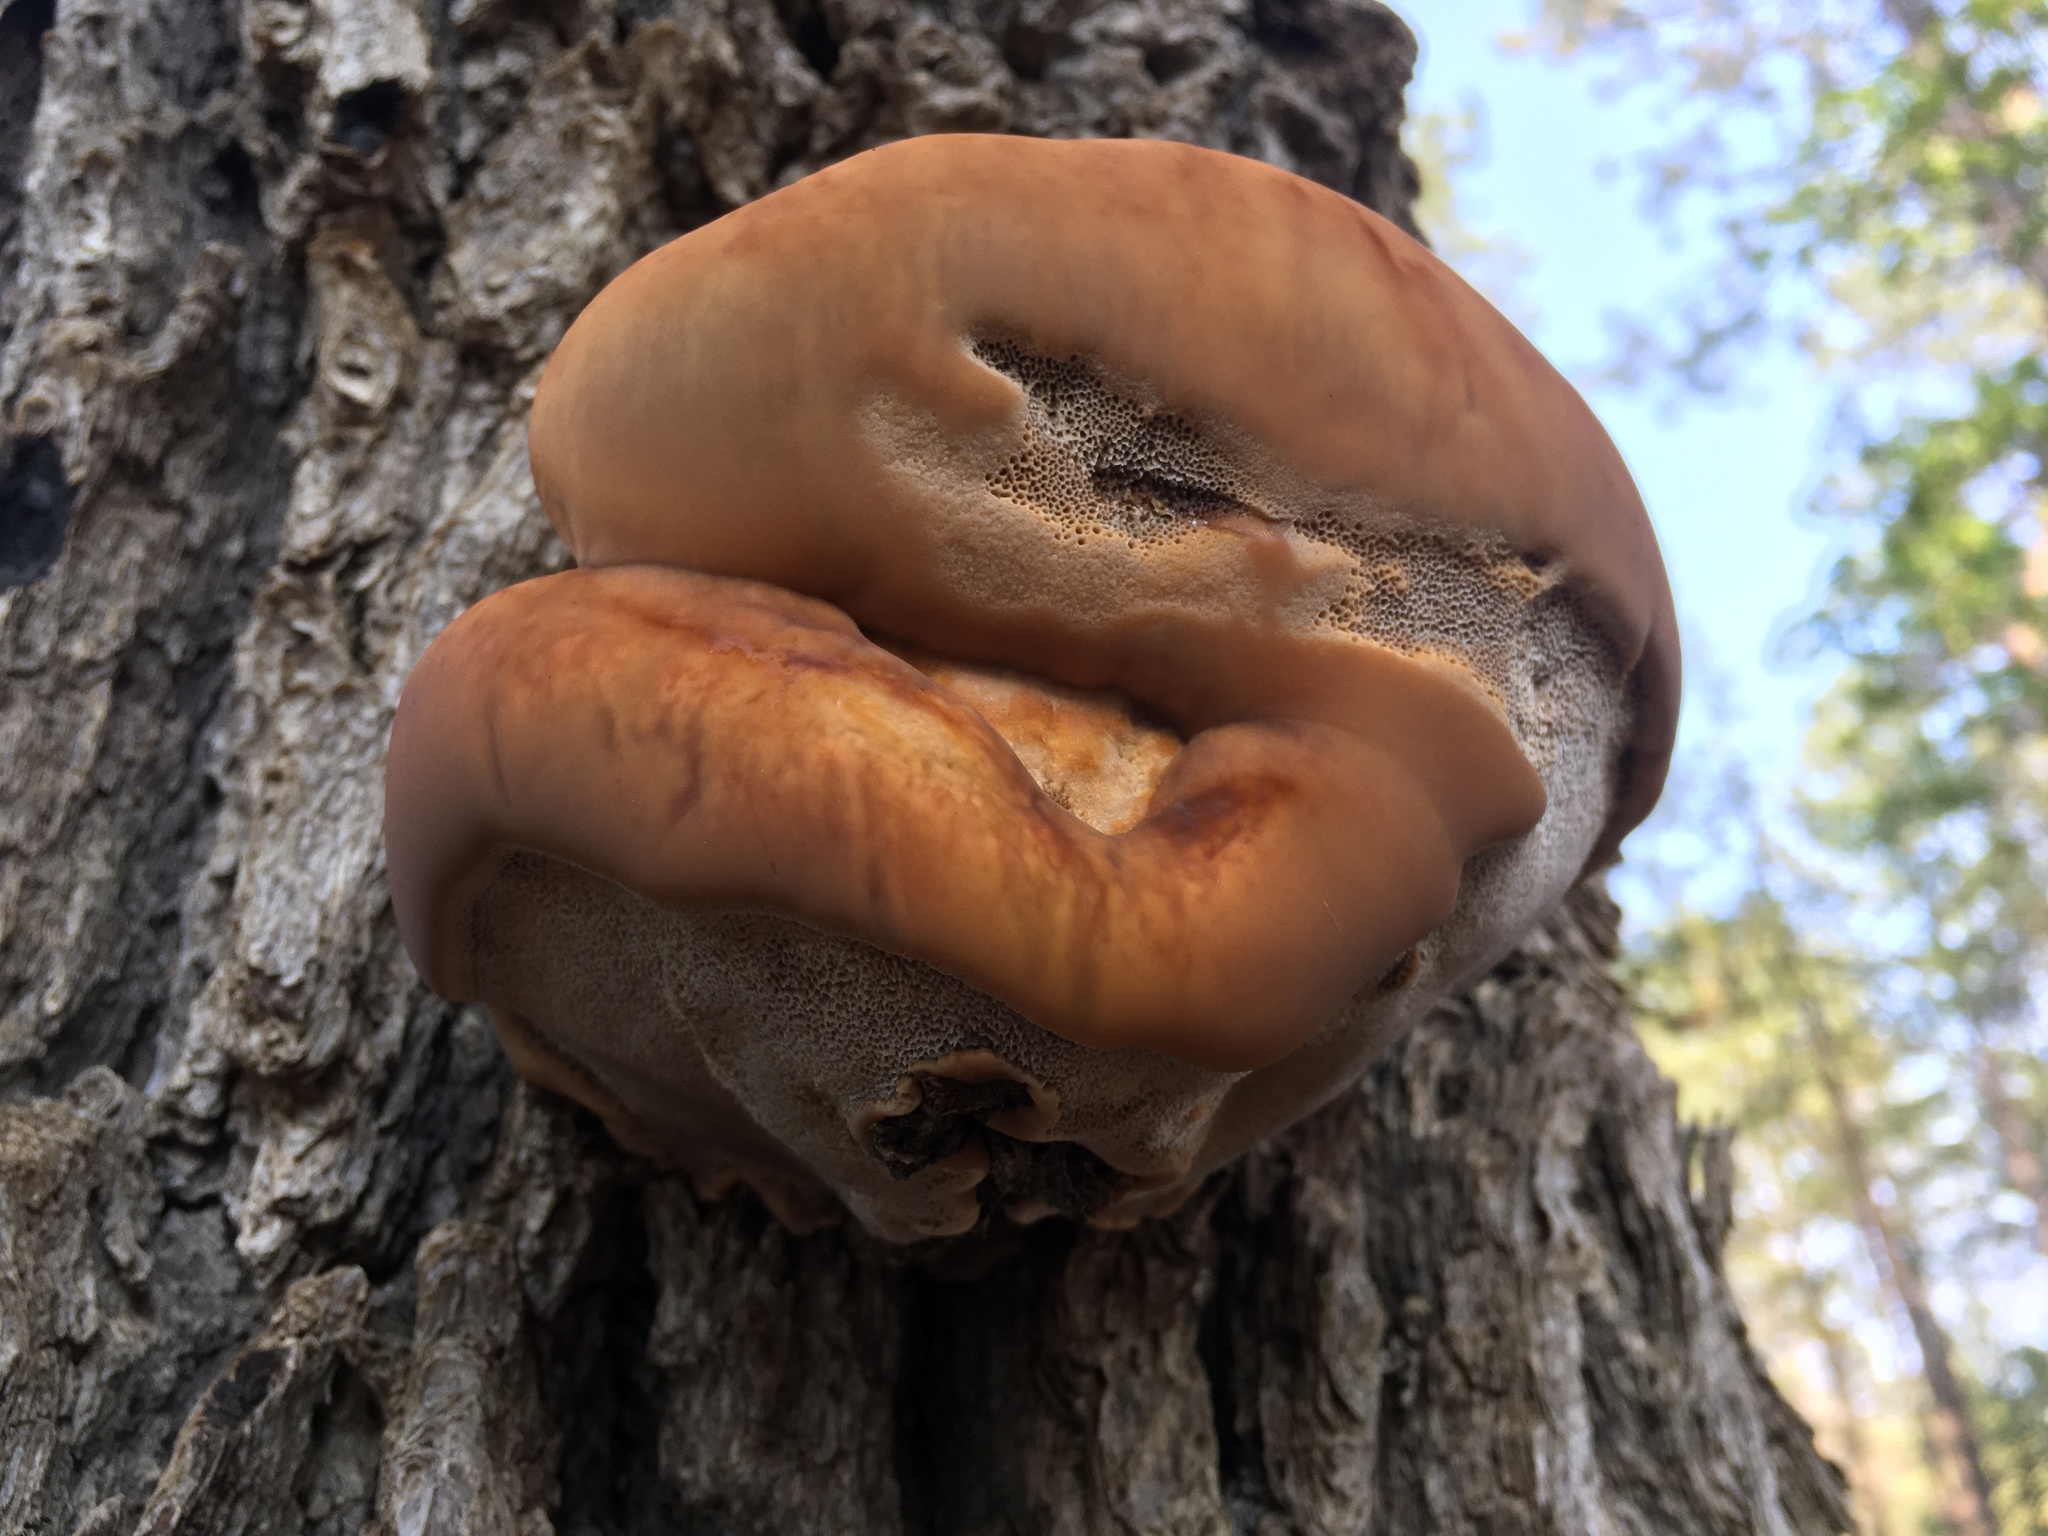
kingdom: Fungi
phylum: Basidiomycota
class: Agaricomycetes
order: Hymenochaetales
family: Hymenochaetaceae
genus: Inocutis
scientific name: Inocutis dryophila
